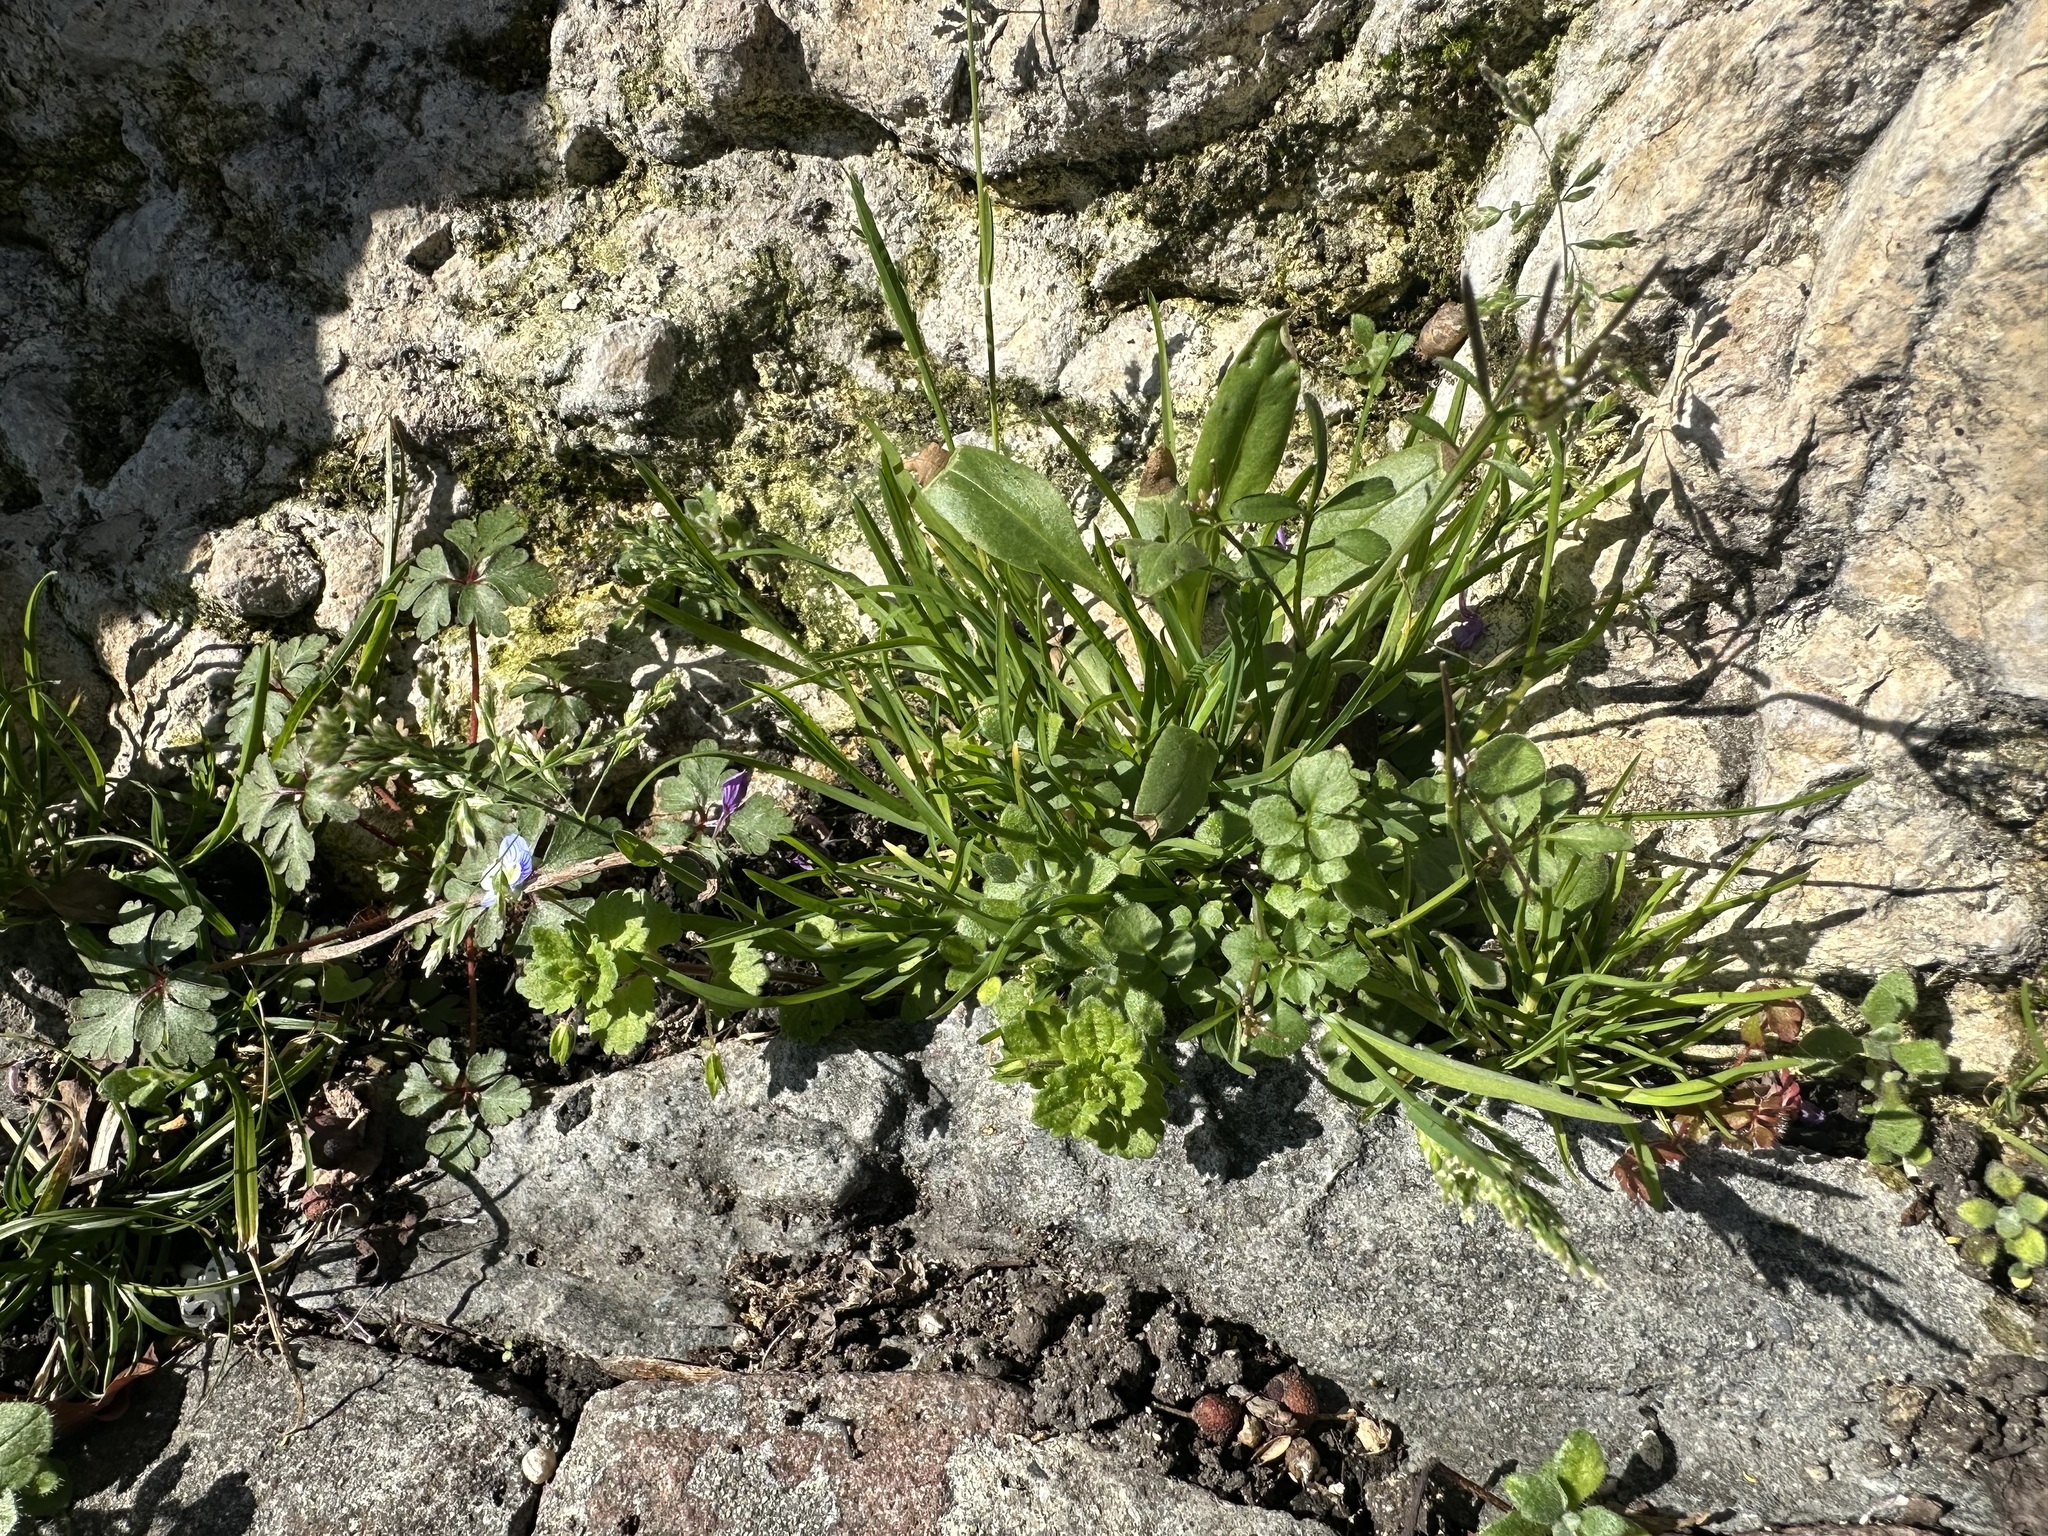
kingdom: Plantae
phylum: Tracheophyta
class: Liliopsida
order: Poales
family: Poaceae
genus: Poa
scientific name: Poa annua
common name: Annual bluegrass
